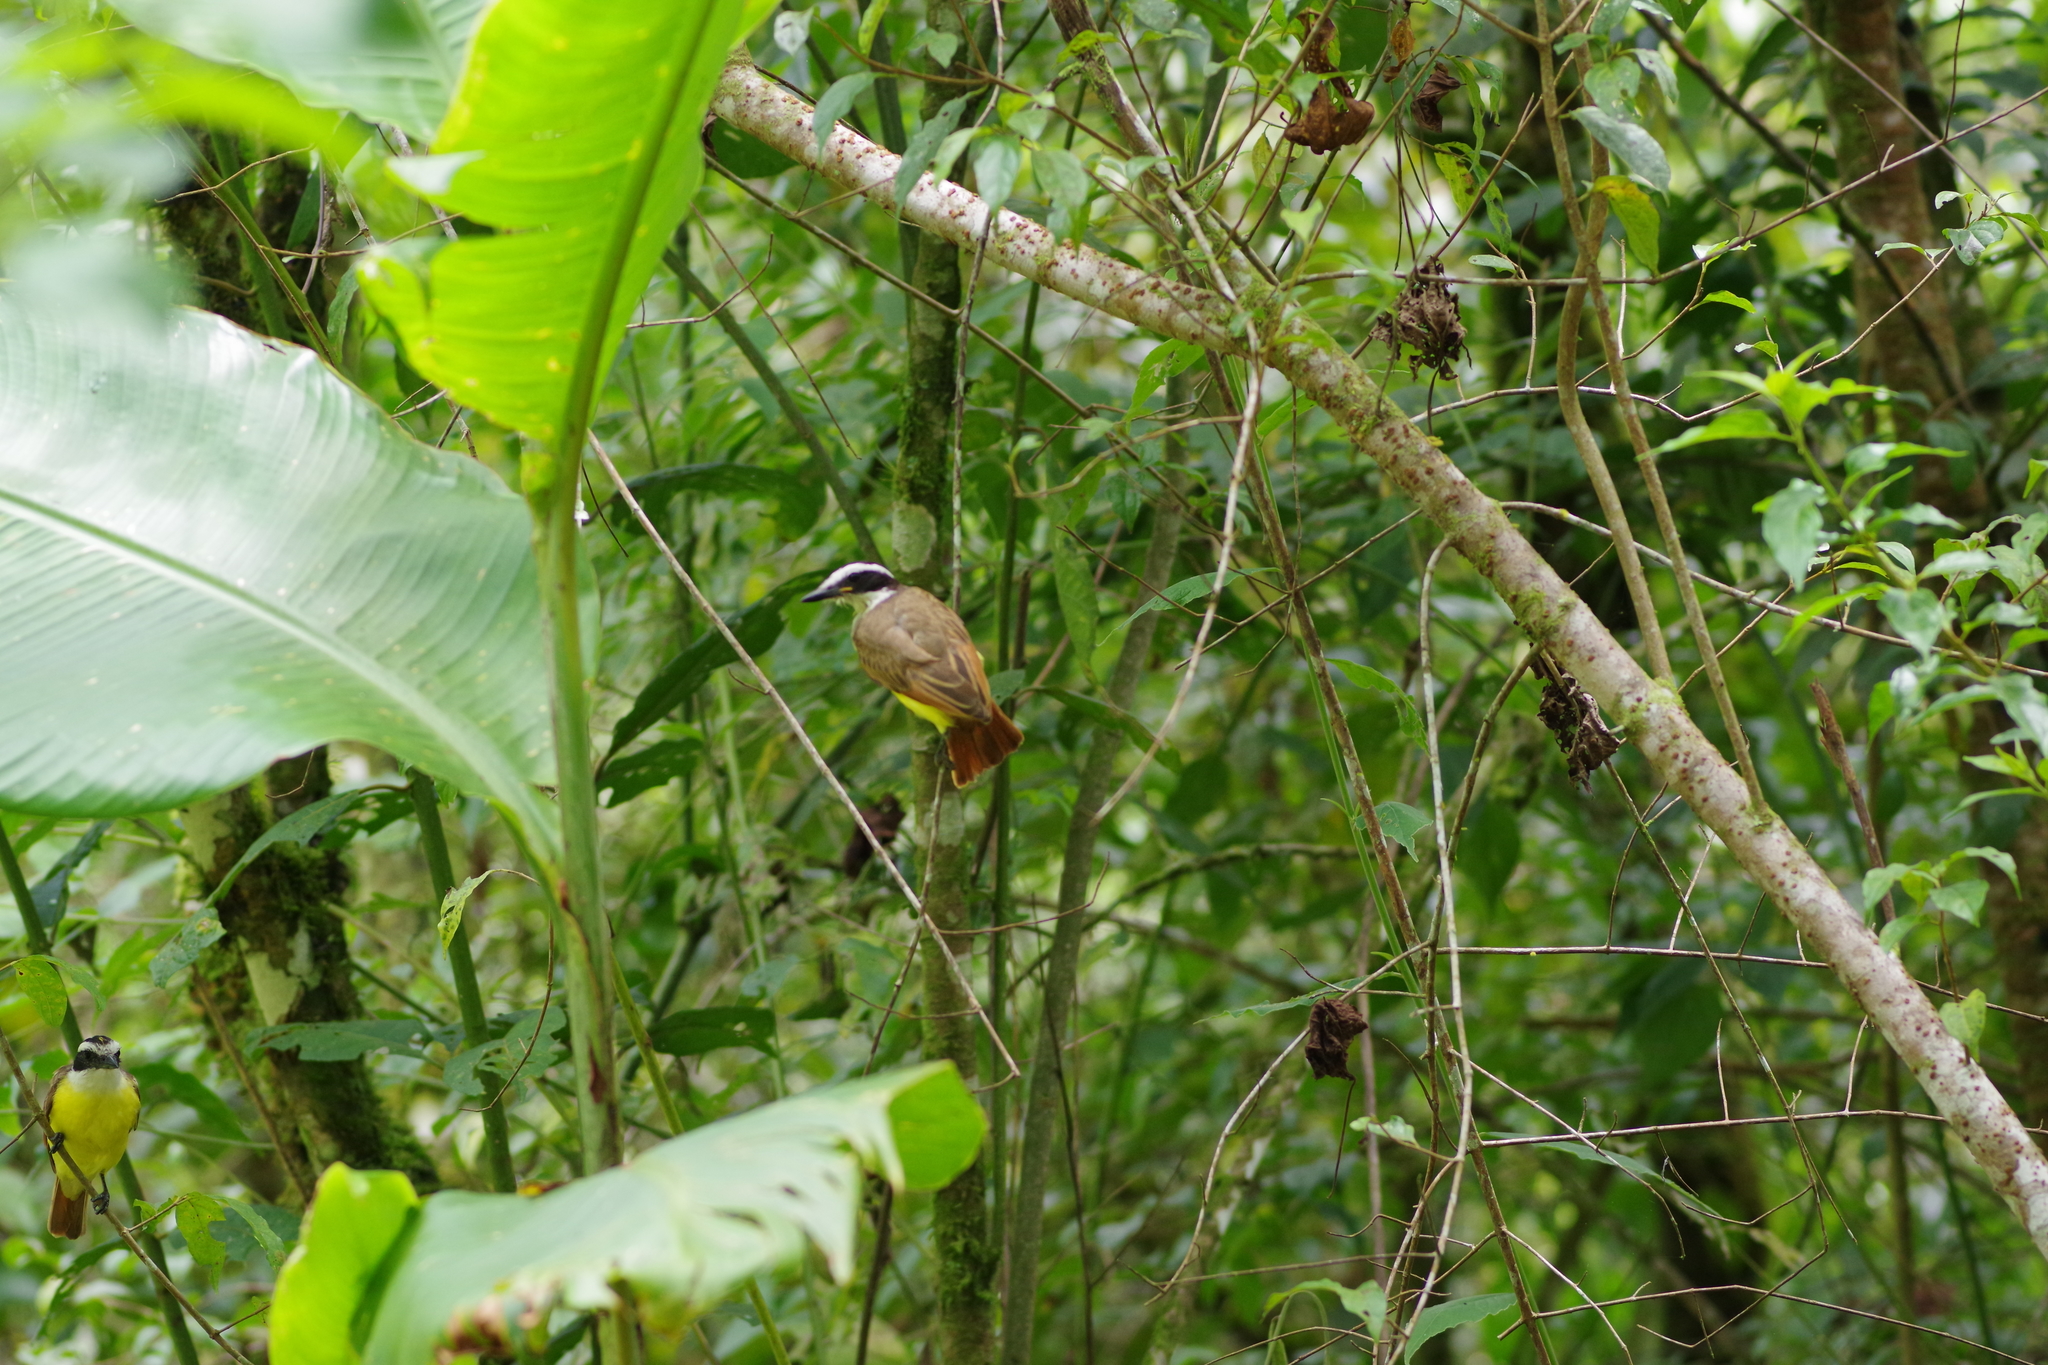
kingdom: Animalia
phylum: Chordata
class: Aves
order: Passeriformes
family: Tyrannidae
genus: Pitangus
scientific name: Pitangus sulphuratus
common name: Great kiskadee
